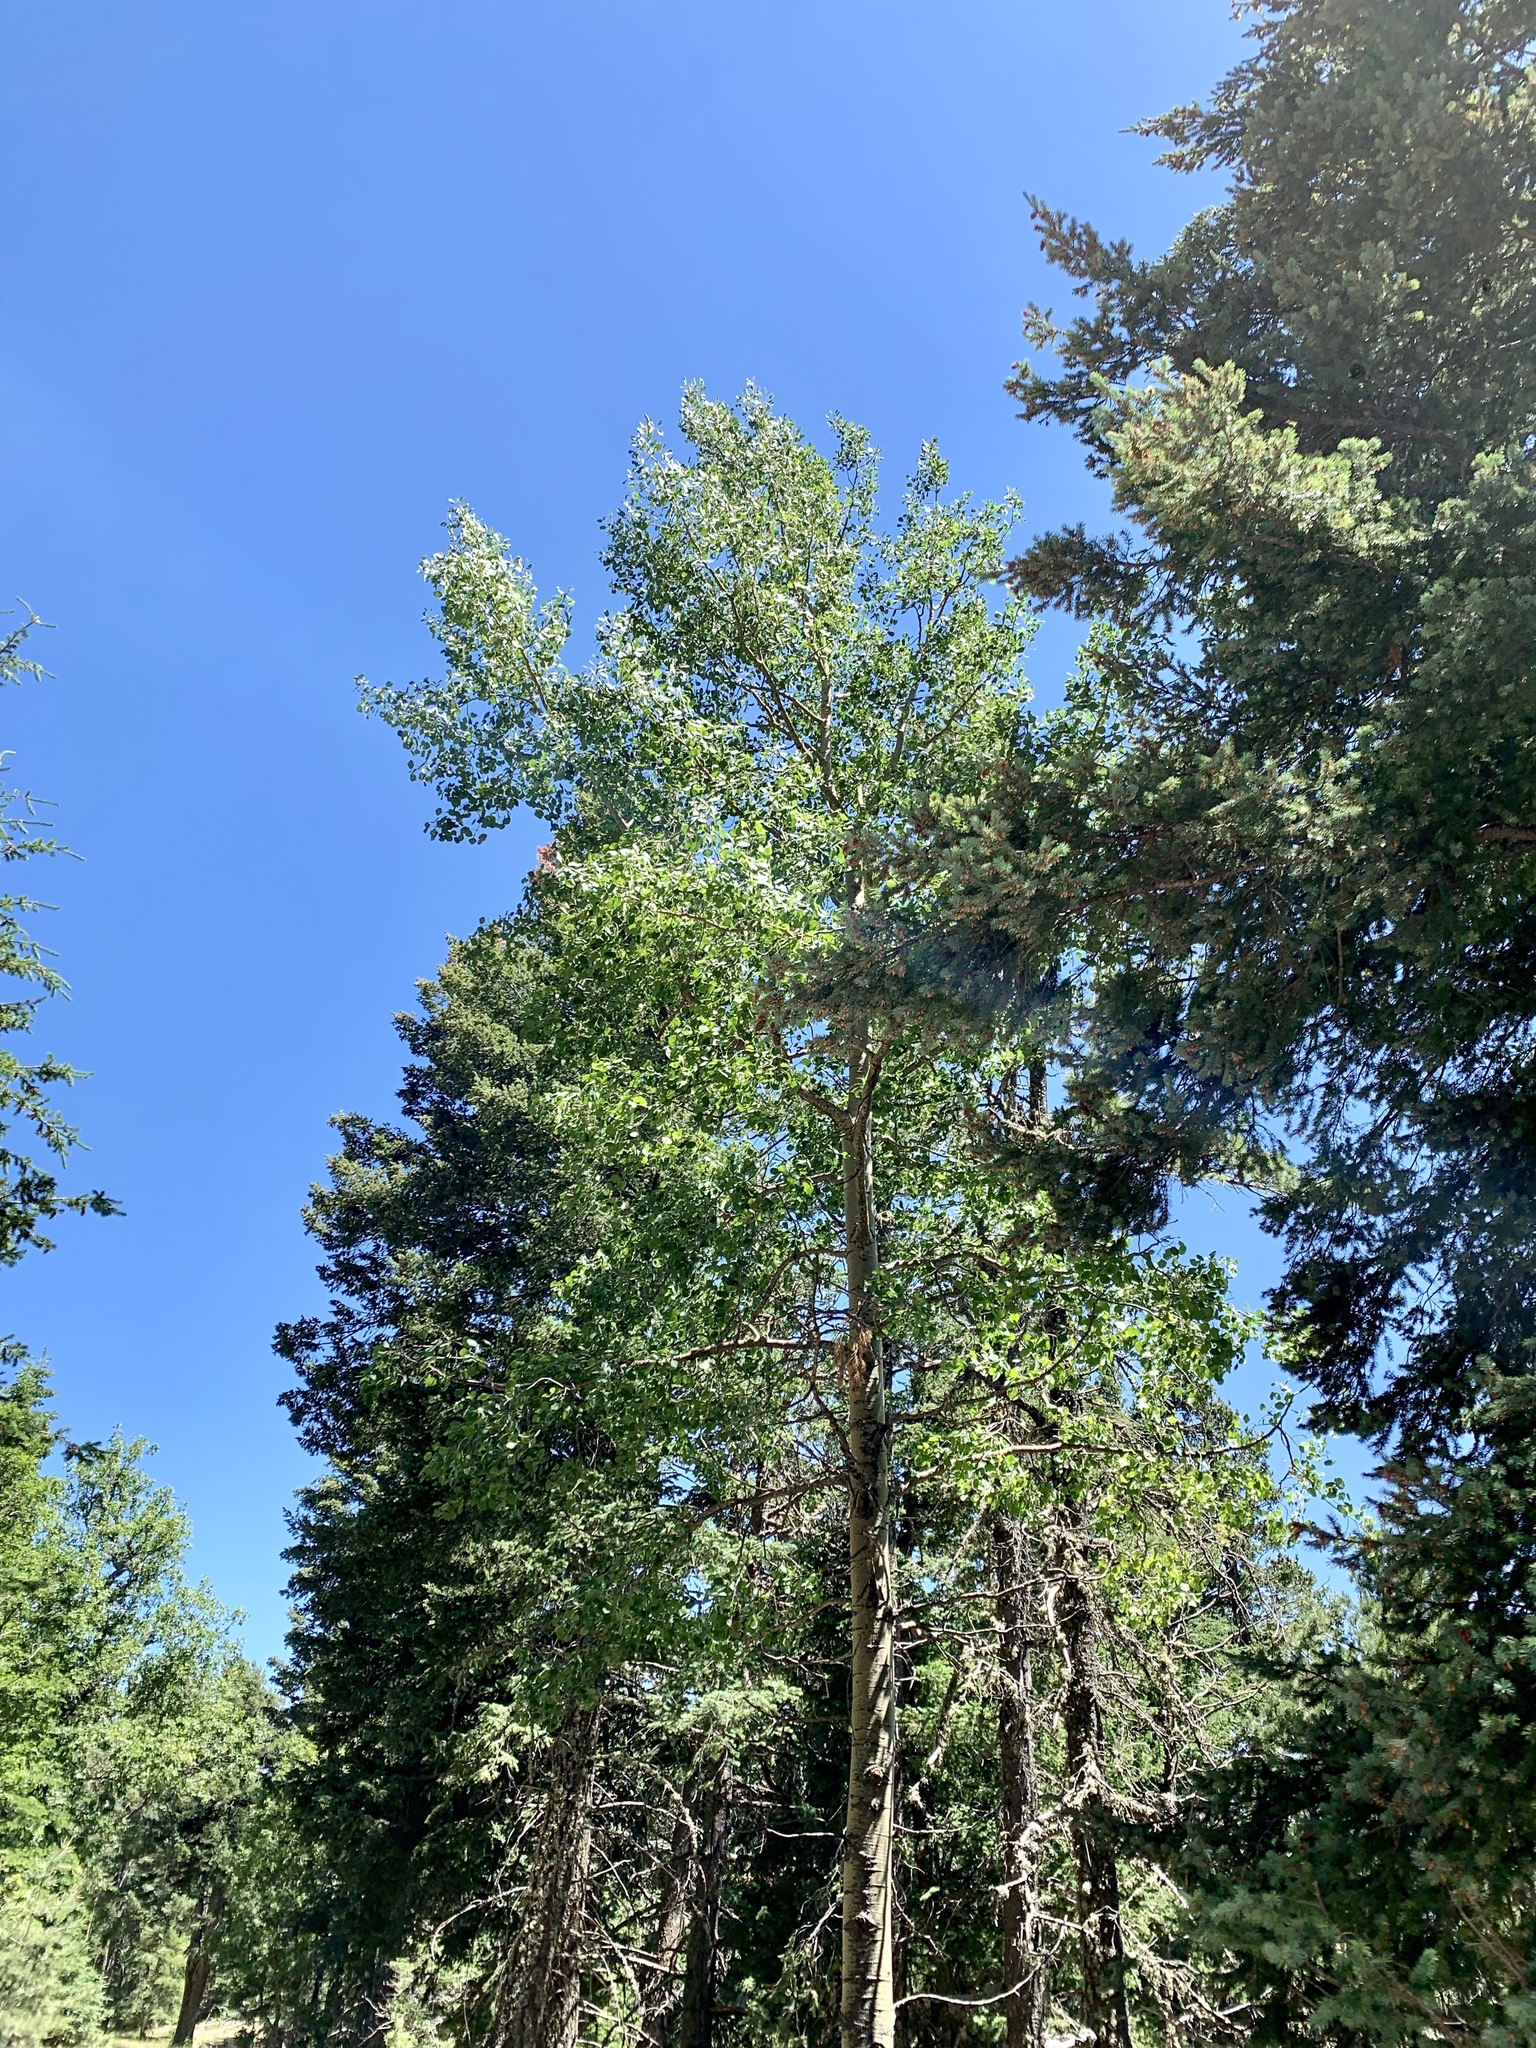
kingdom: Plantae
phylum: Tracheophyta
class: Magnoliopsida
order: Malpighiales
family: Salicaceae
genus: Populus
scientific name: Populus tremuloides
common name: Quaking aspen
